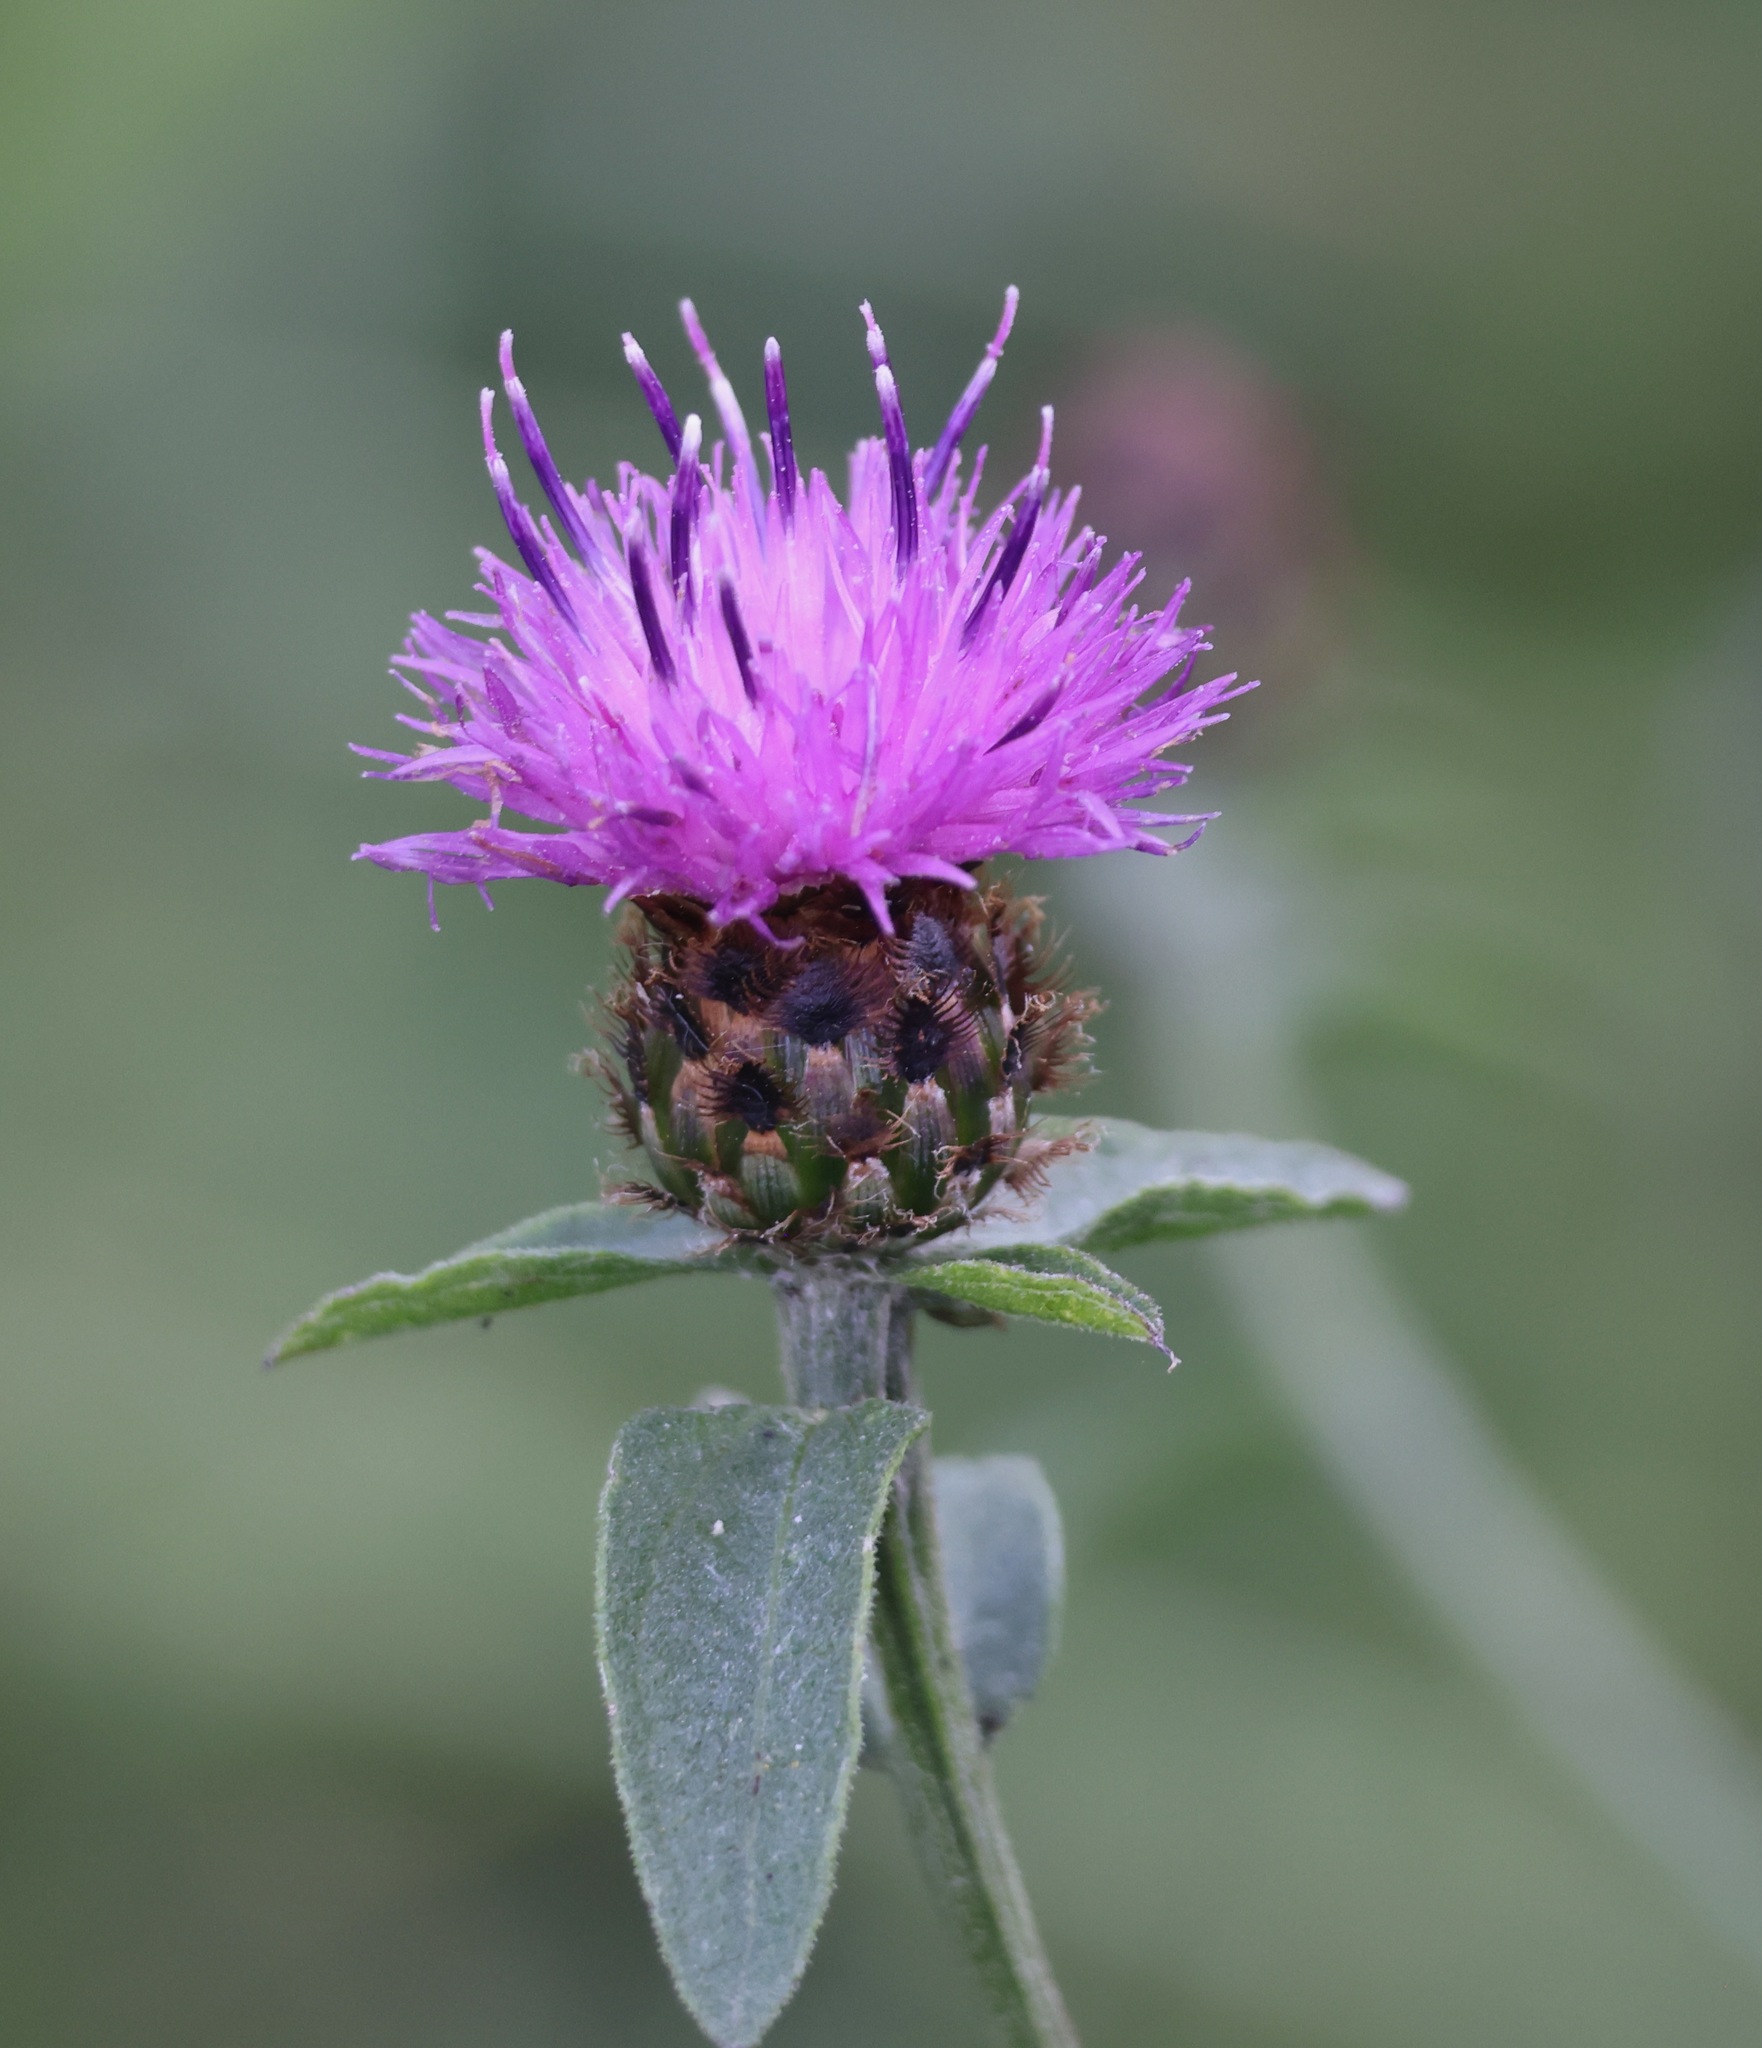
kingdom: Plantae
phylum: Tracheophyta
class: Magnoliopsida
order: Asterales
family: Asteraceae
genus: Centaurea
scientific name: Centaurea nigra
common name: Lesser knapweed
